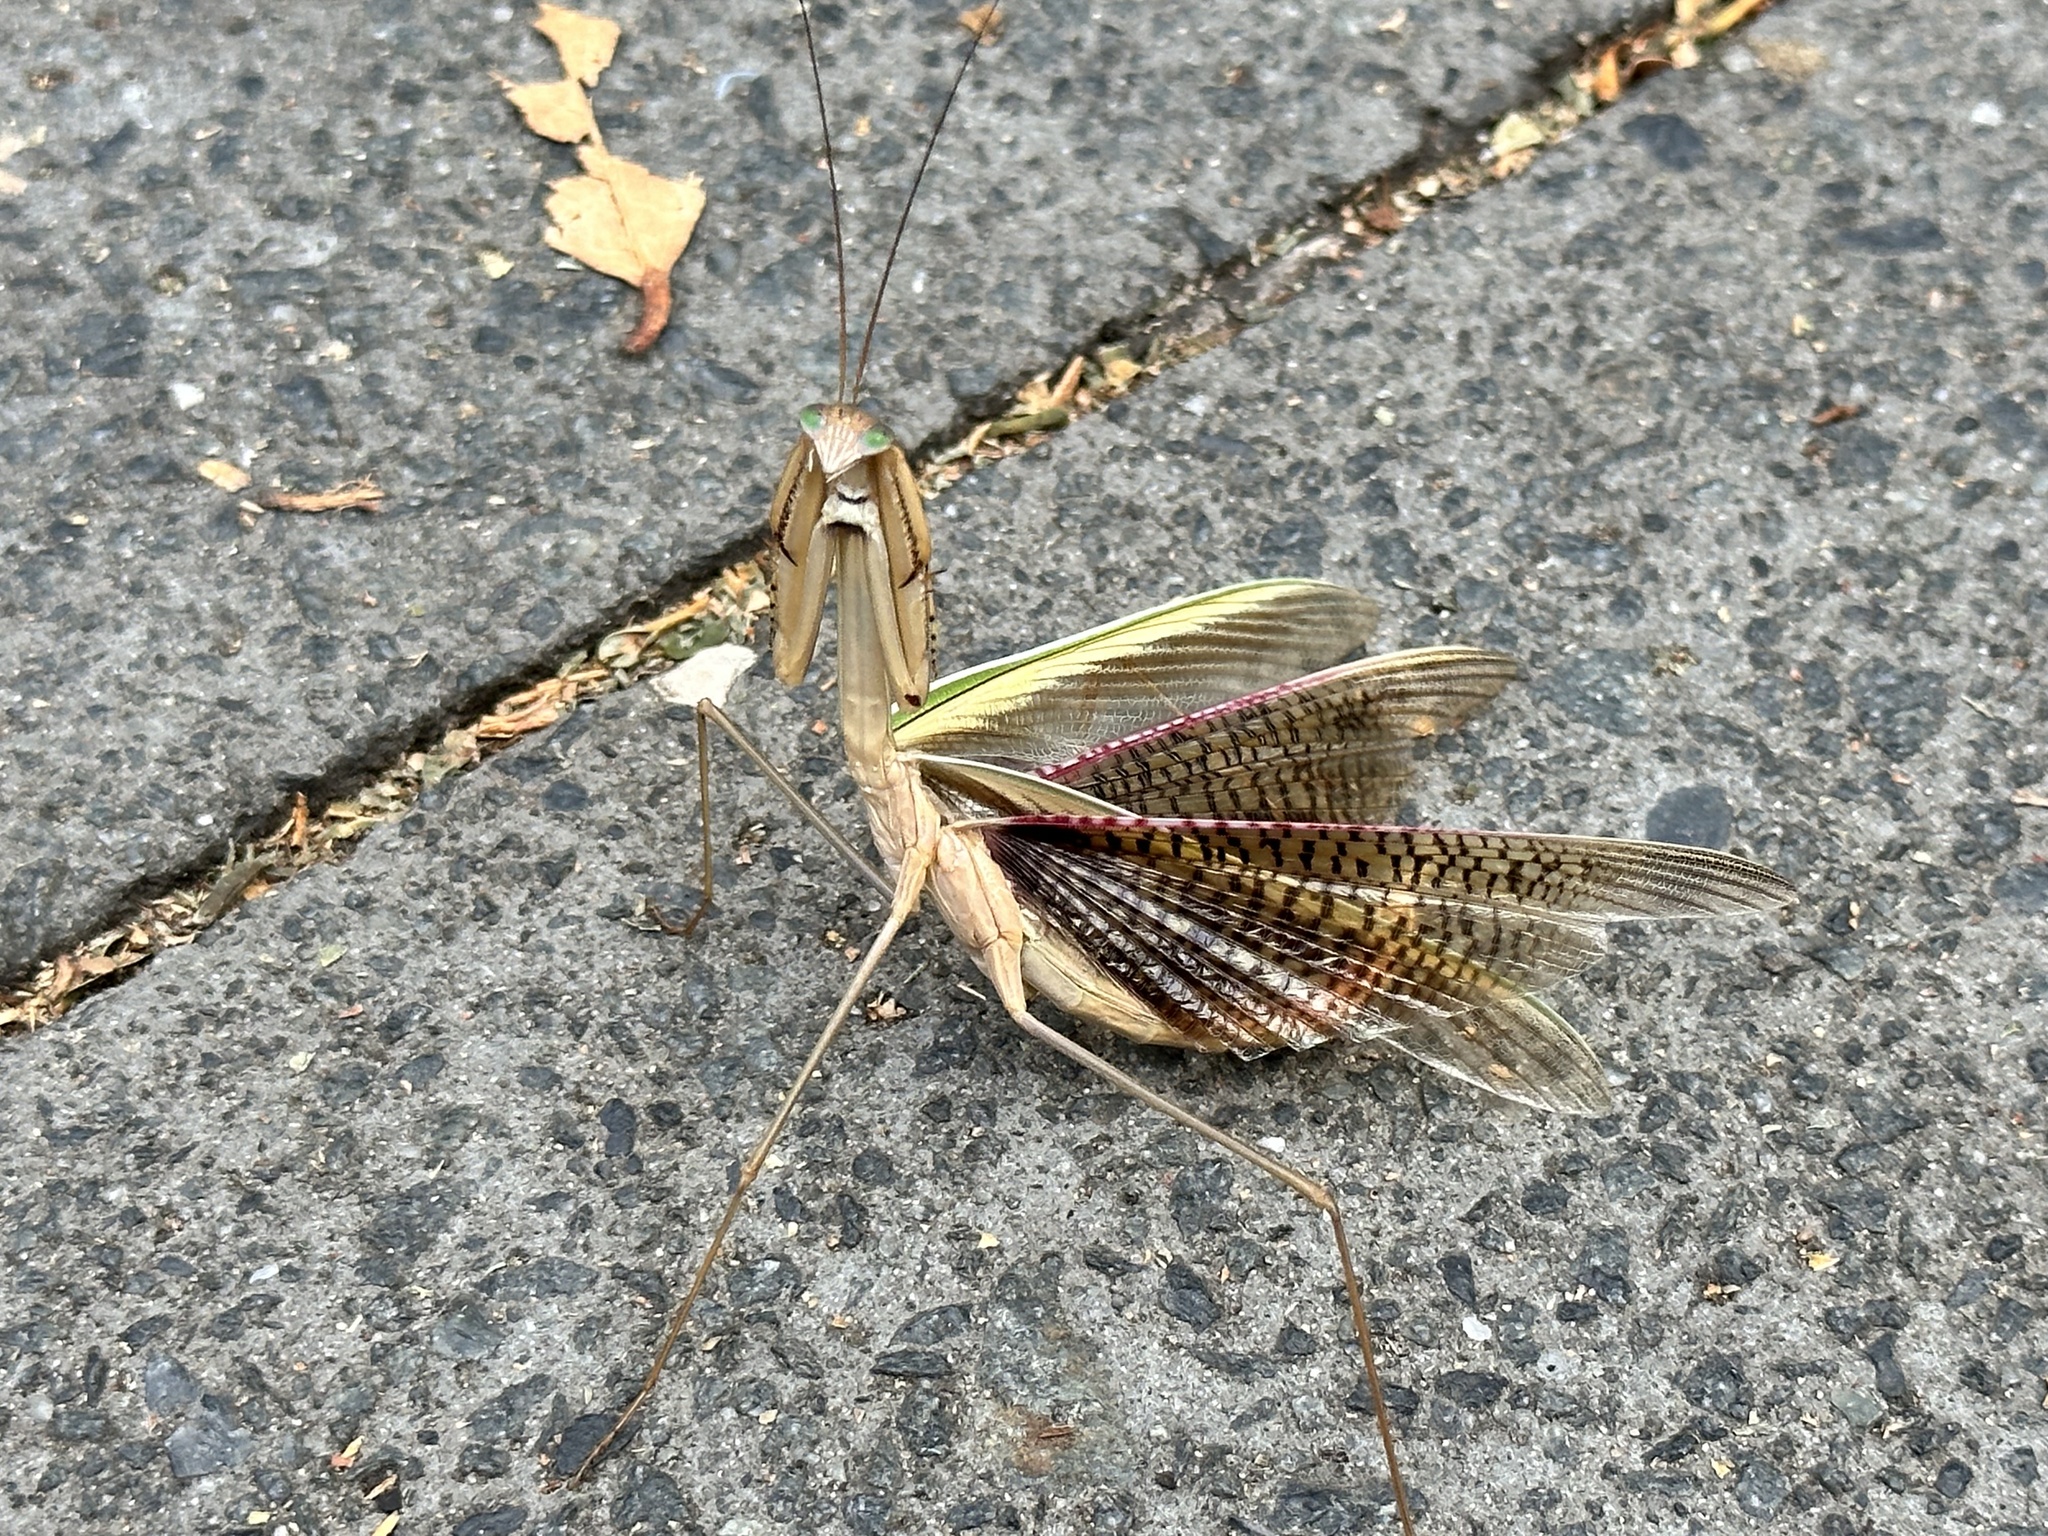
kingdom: Animalia
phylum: Arthropoda
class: Insecta
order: Mantodea
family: Mantidae
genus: Tenodera
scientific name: Tenodera australasiae
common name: Purple-winged mantis
